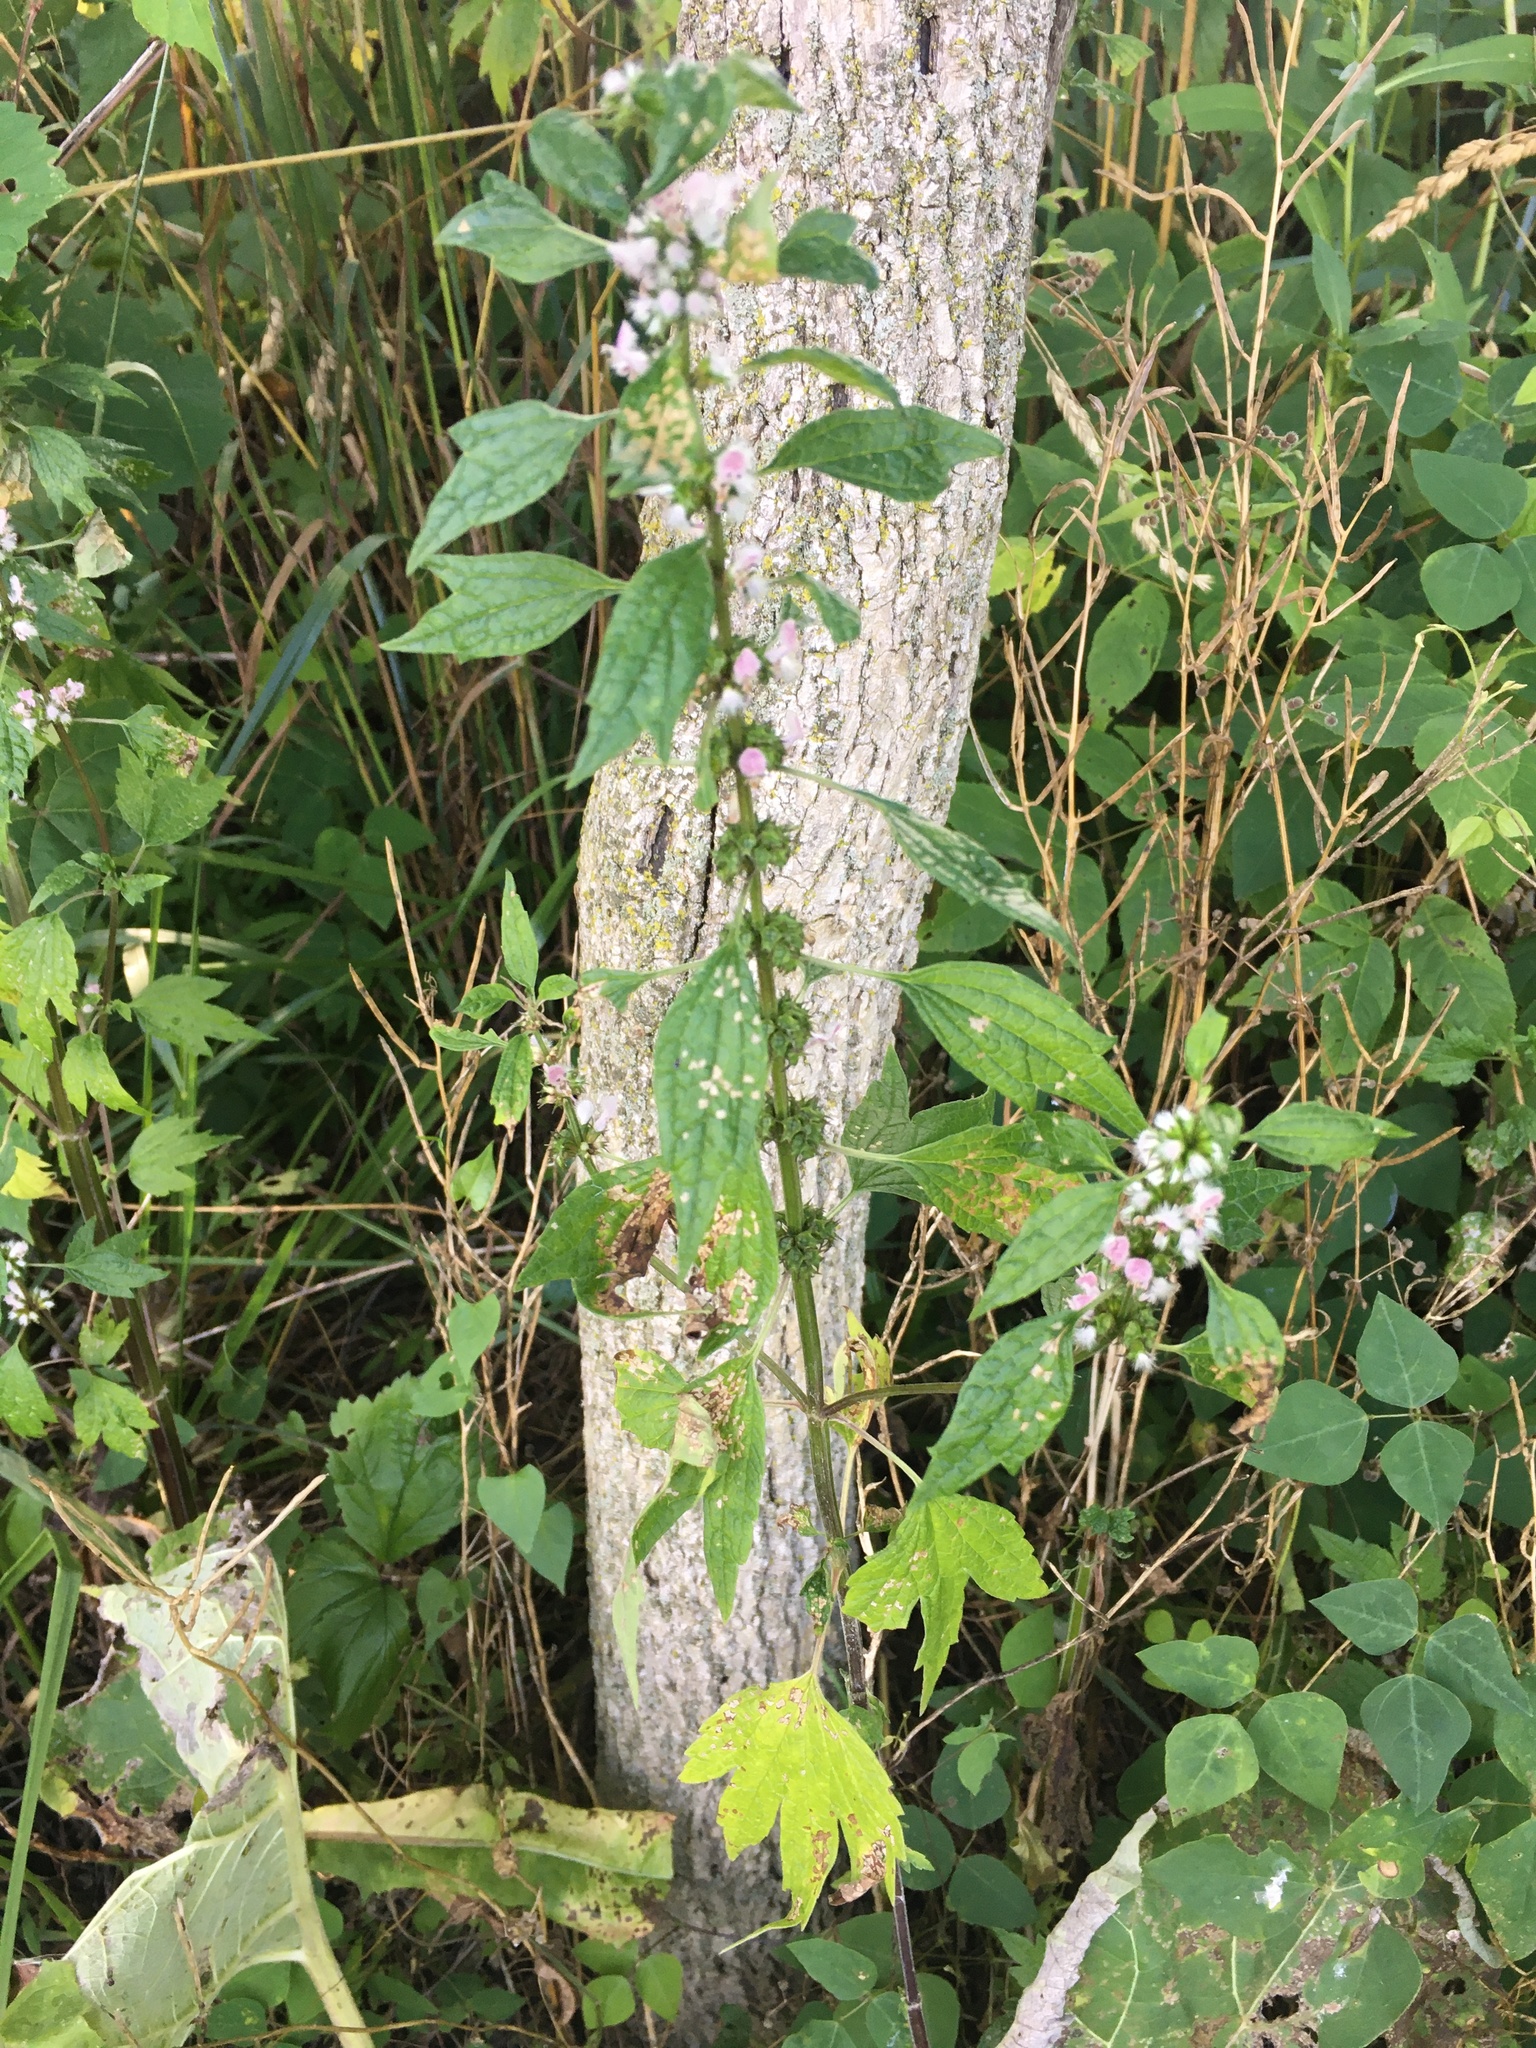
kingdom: Plantae
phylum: Tracheophyta
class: Magnoliopsida
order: Lamiales
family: Lamiaceae
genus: Leonurus
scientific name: Leonurus cardiaca
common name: Motherwort
